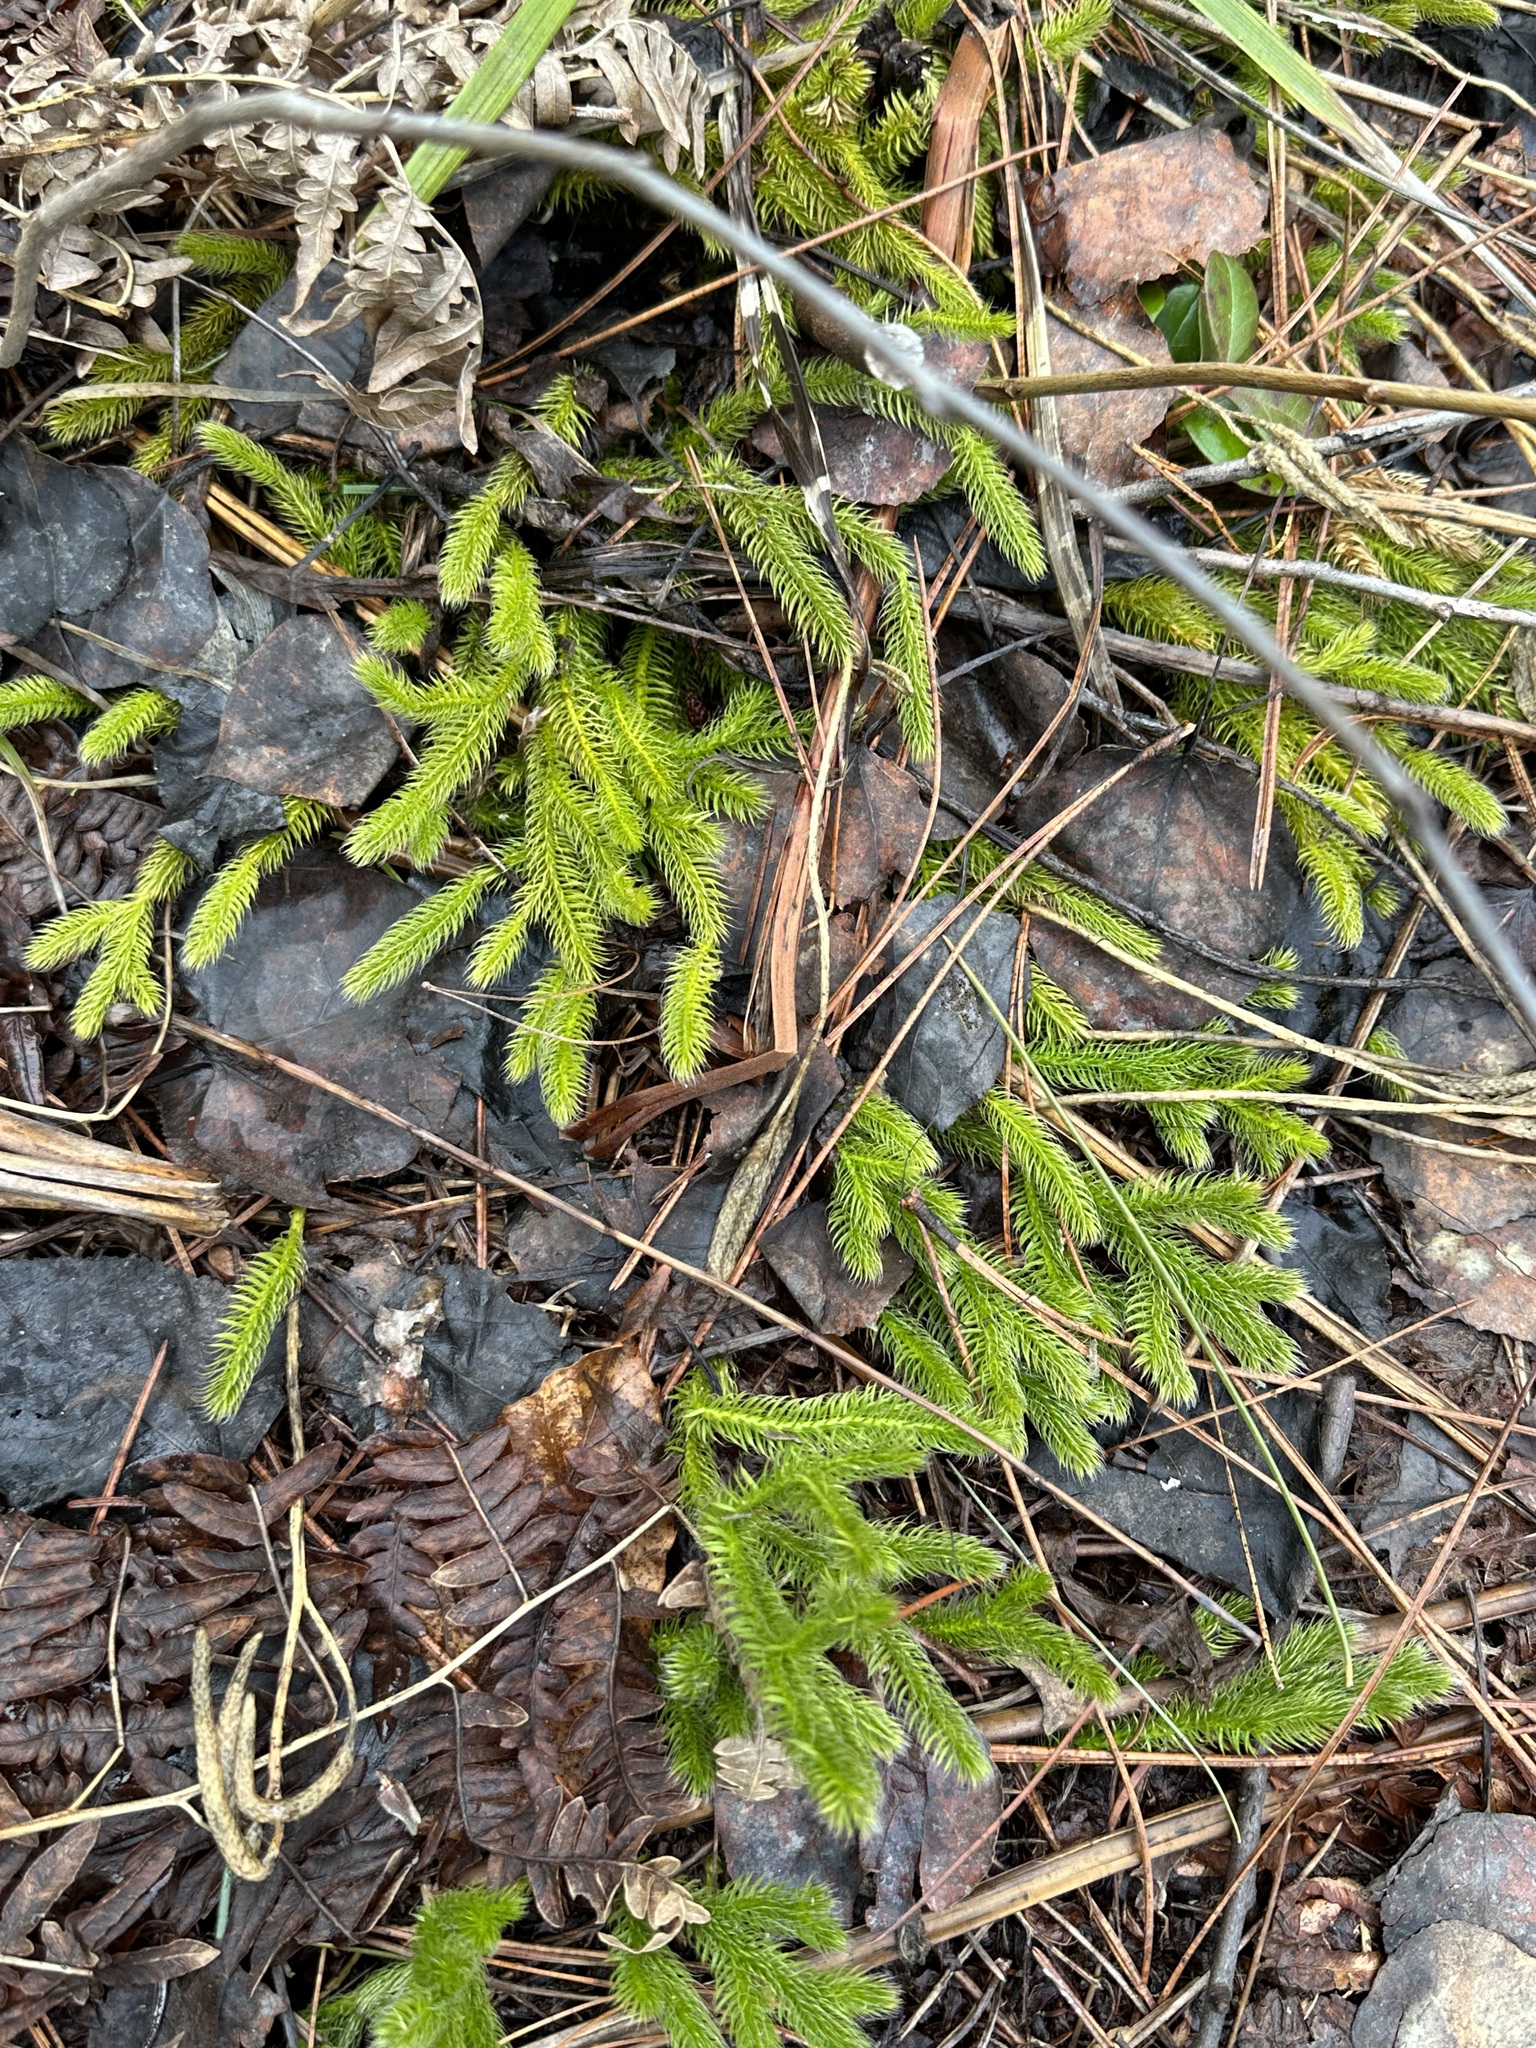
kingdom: Plantae
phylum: Tracheophyta
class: Lycopodiopsida
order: Lycopodiales
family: Lycopodiaceae
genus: Lycopodium
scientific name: Lycopodium clavatum
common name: Stag's-horn clubmoss
